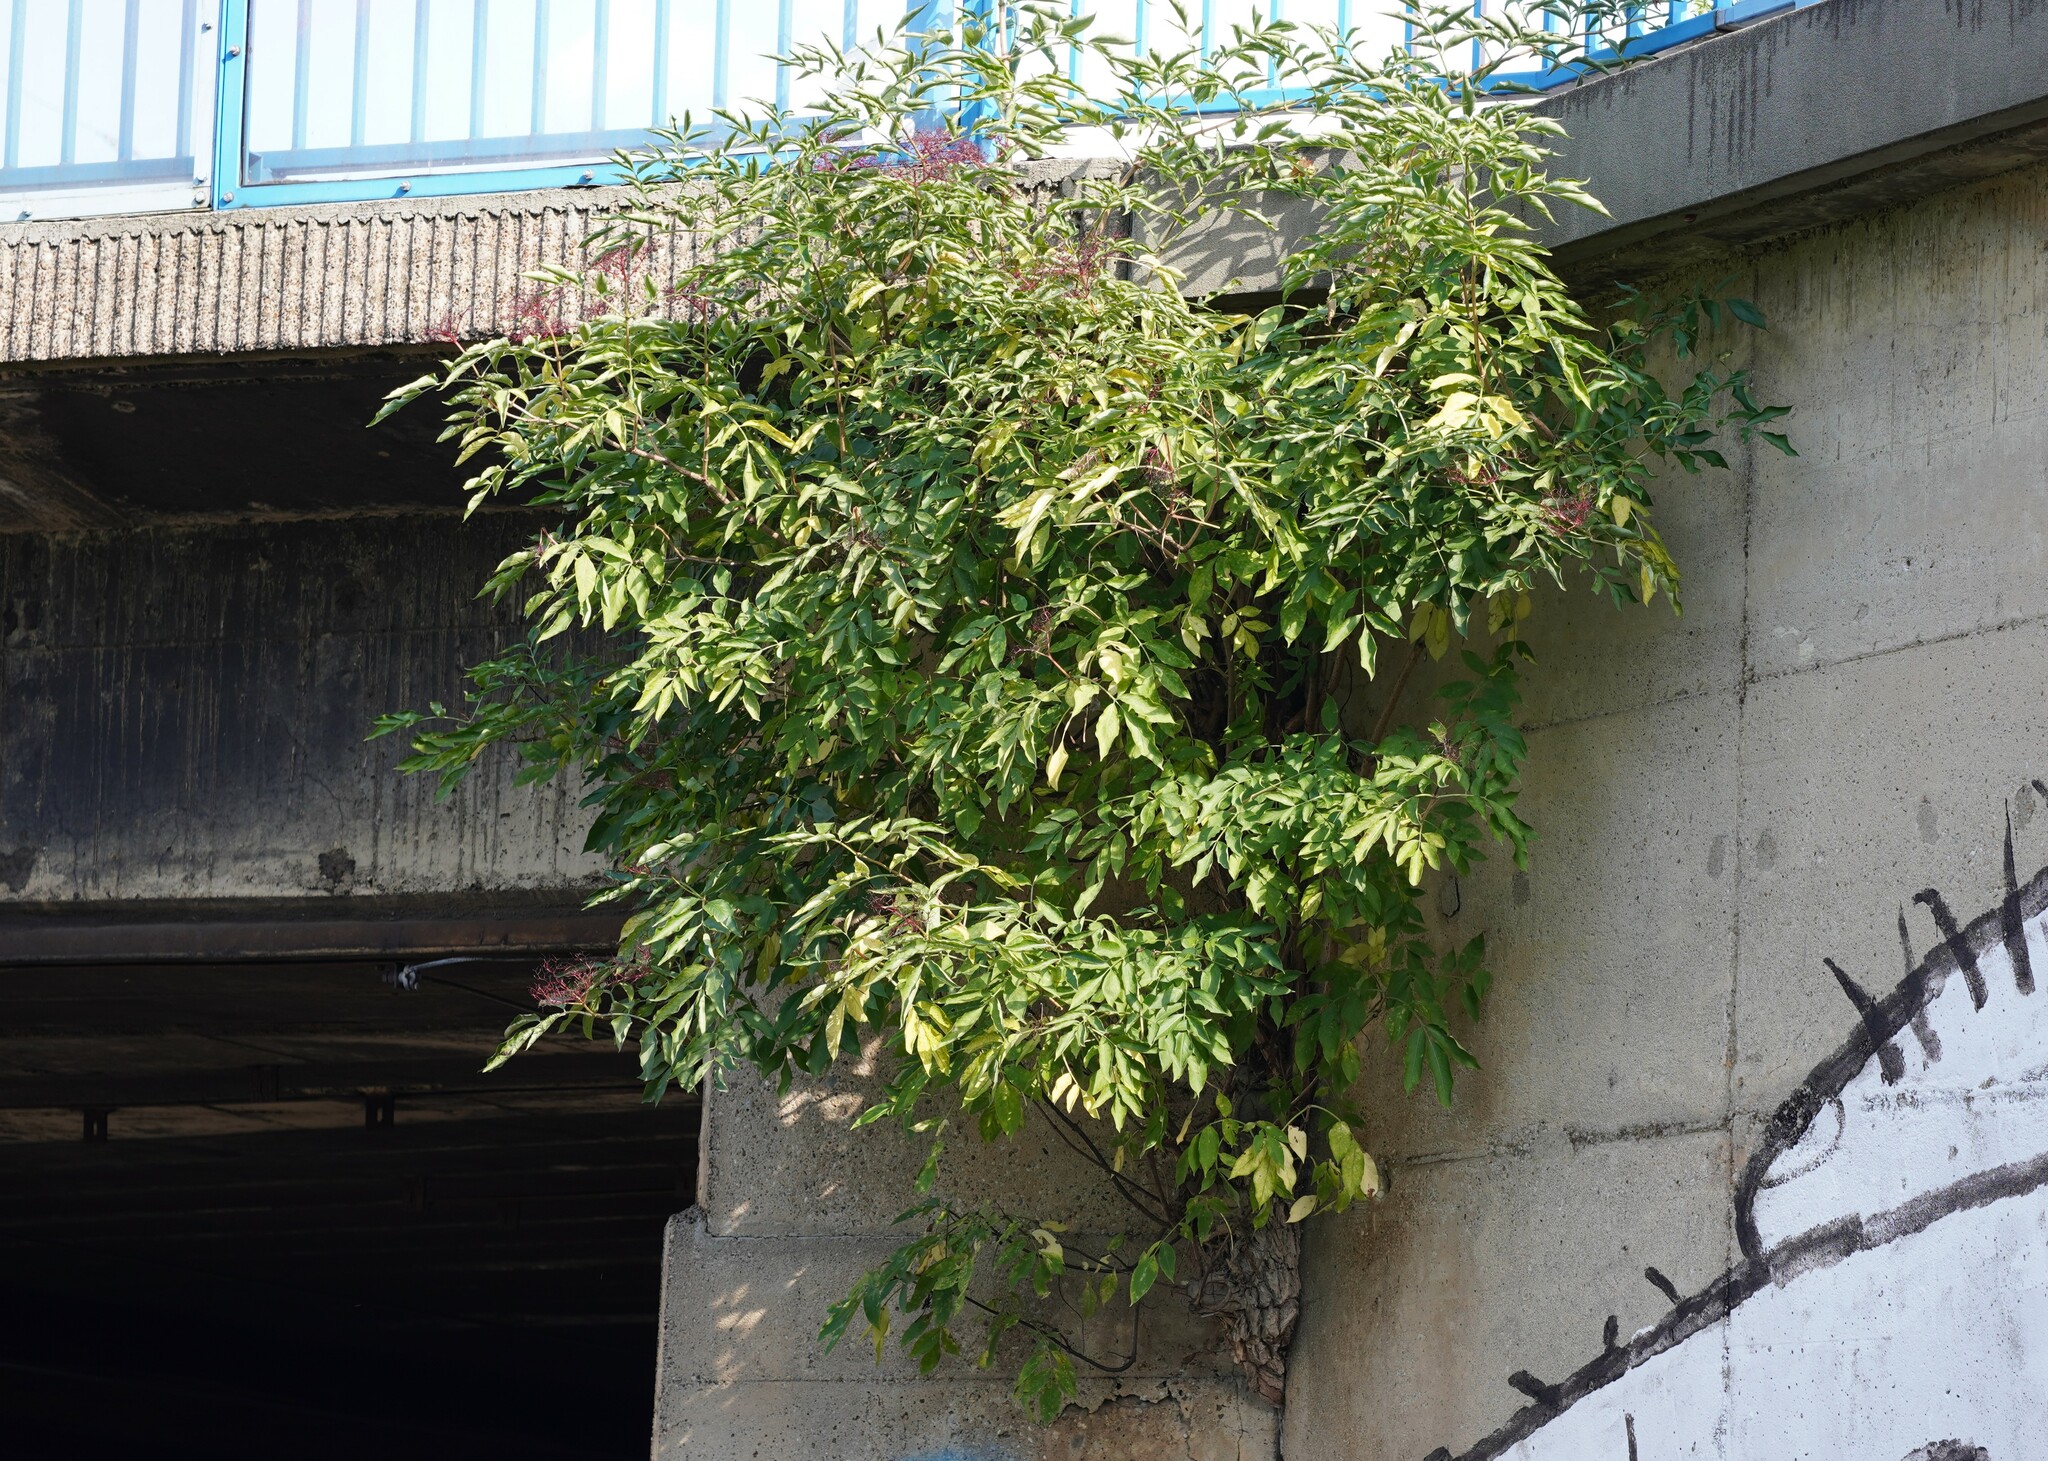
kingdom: Plantae
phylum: Tracheophyta
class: Magnoliopsida
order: Dipsacales
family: Viburnaceae
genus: Sambucus
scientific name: Sambucus nigra
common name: Elder
